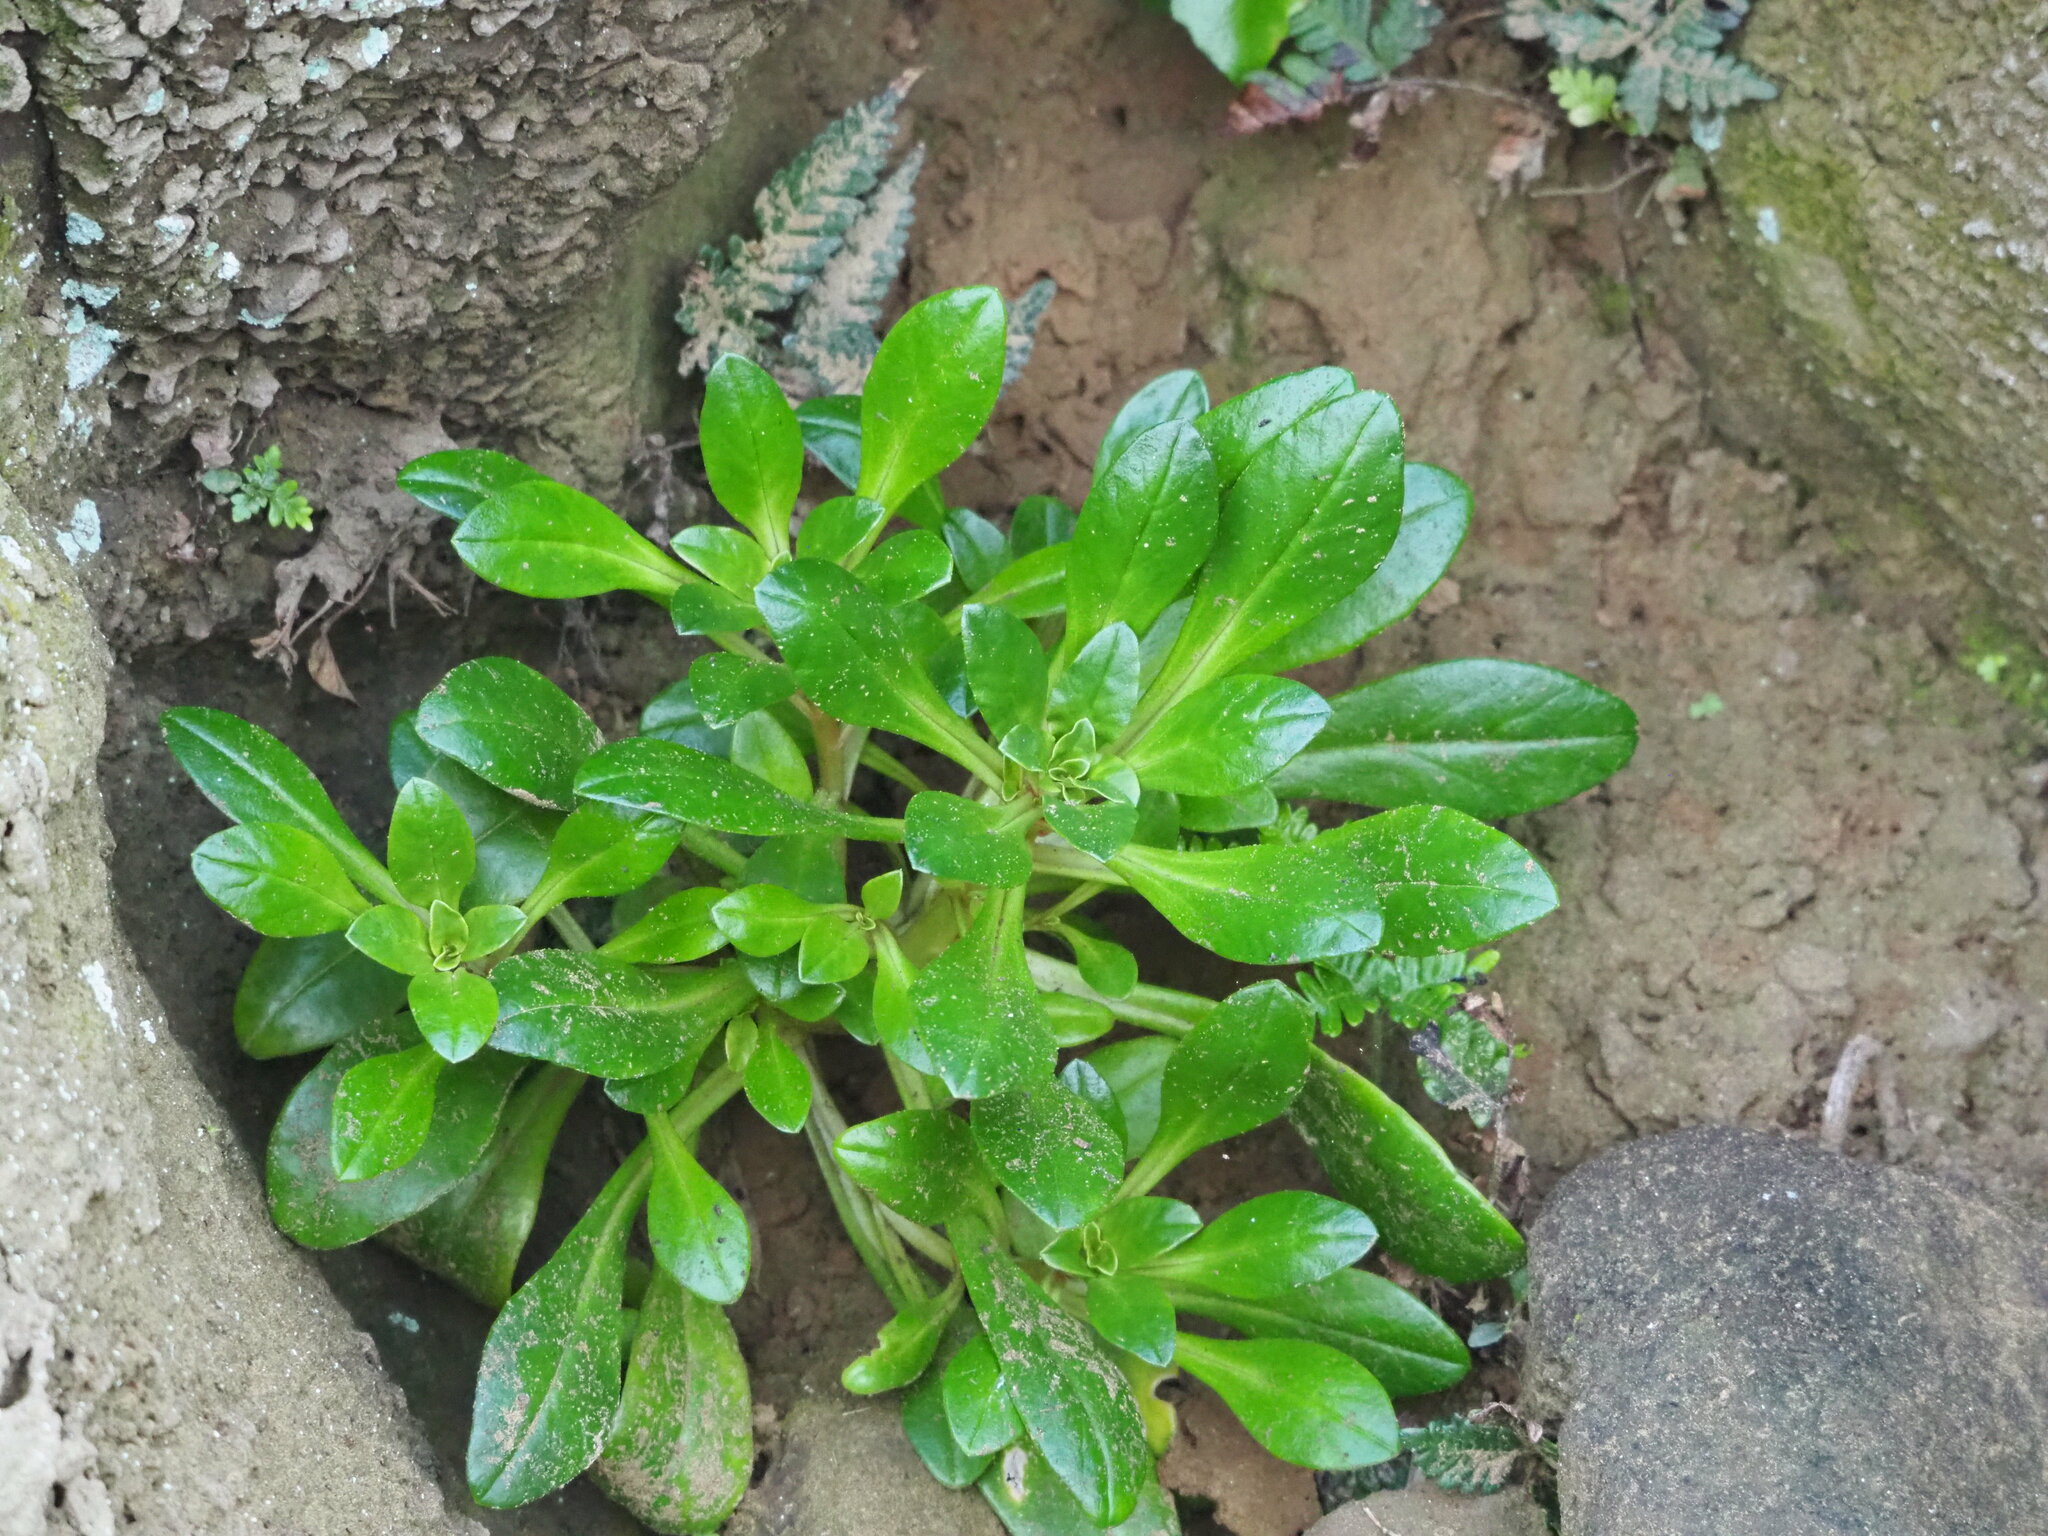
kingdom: Plantae
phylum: Tracheophyta
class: Magnoliopsida
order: Ericales
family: Primulaceae
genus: Lysimachia
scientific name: Lysimachia mauritiana
